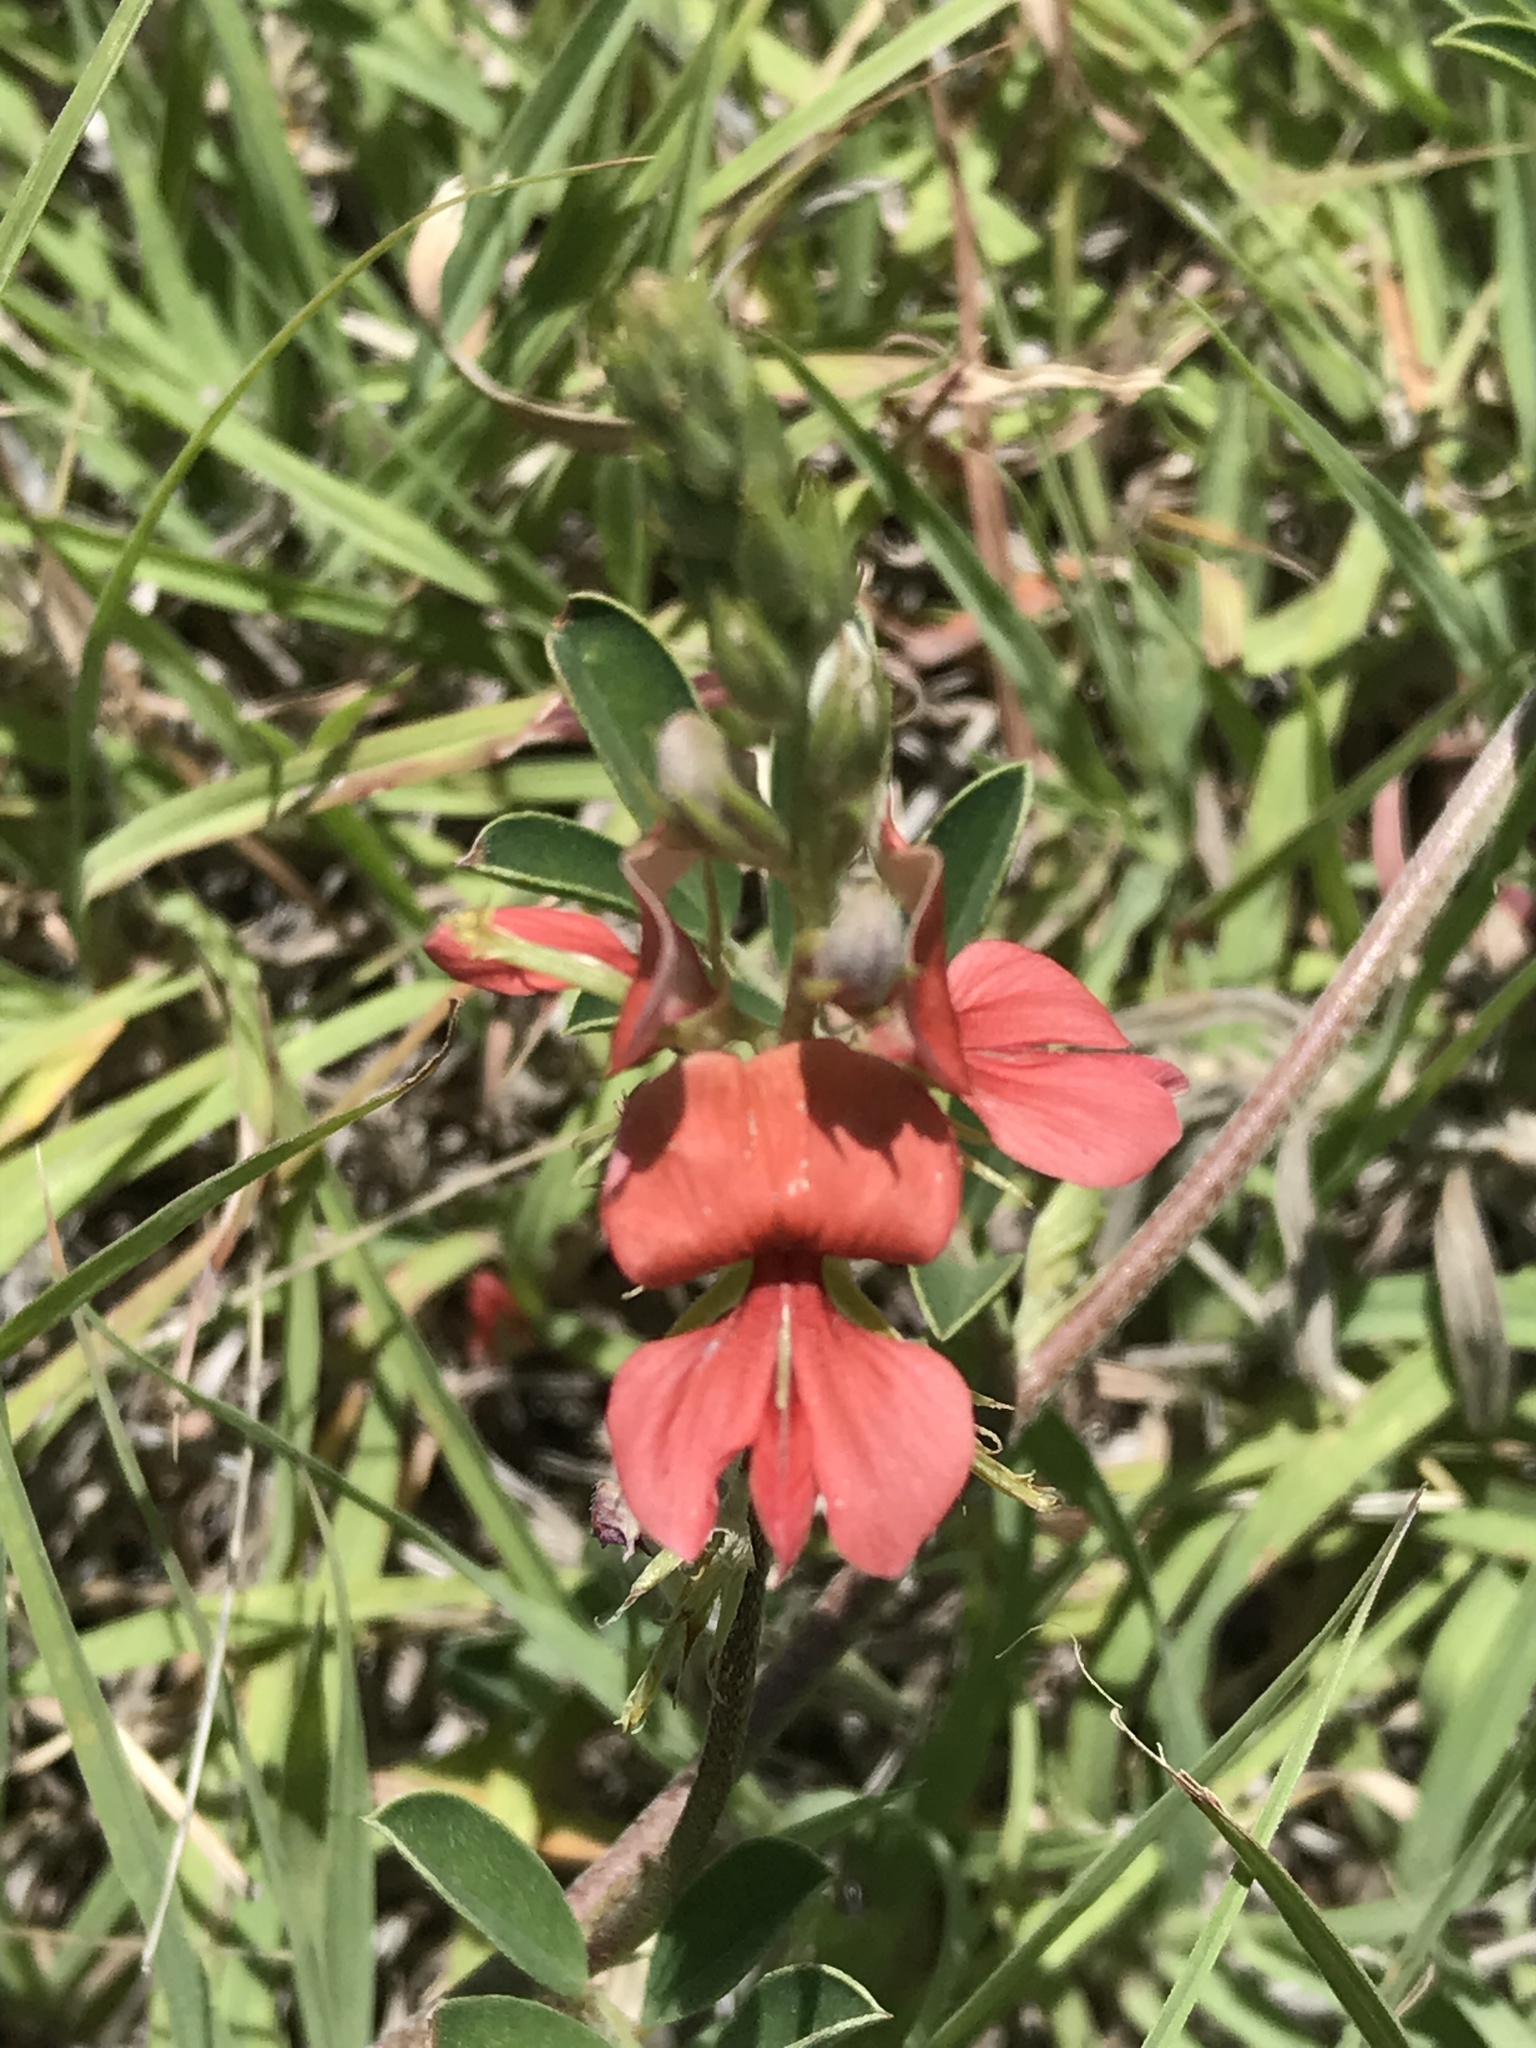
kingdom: Plantae
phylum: Tracheophyta
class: Magnoliopsida
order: Fabales
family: Fabaceae
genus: Indigofera
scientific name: Indigofera miniata
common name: Coast indigo
